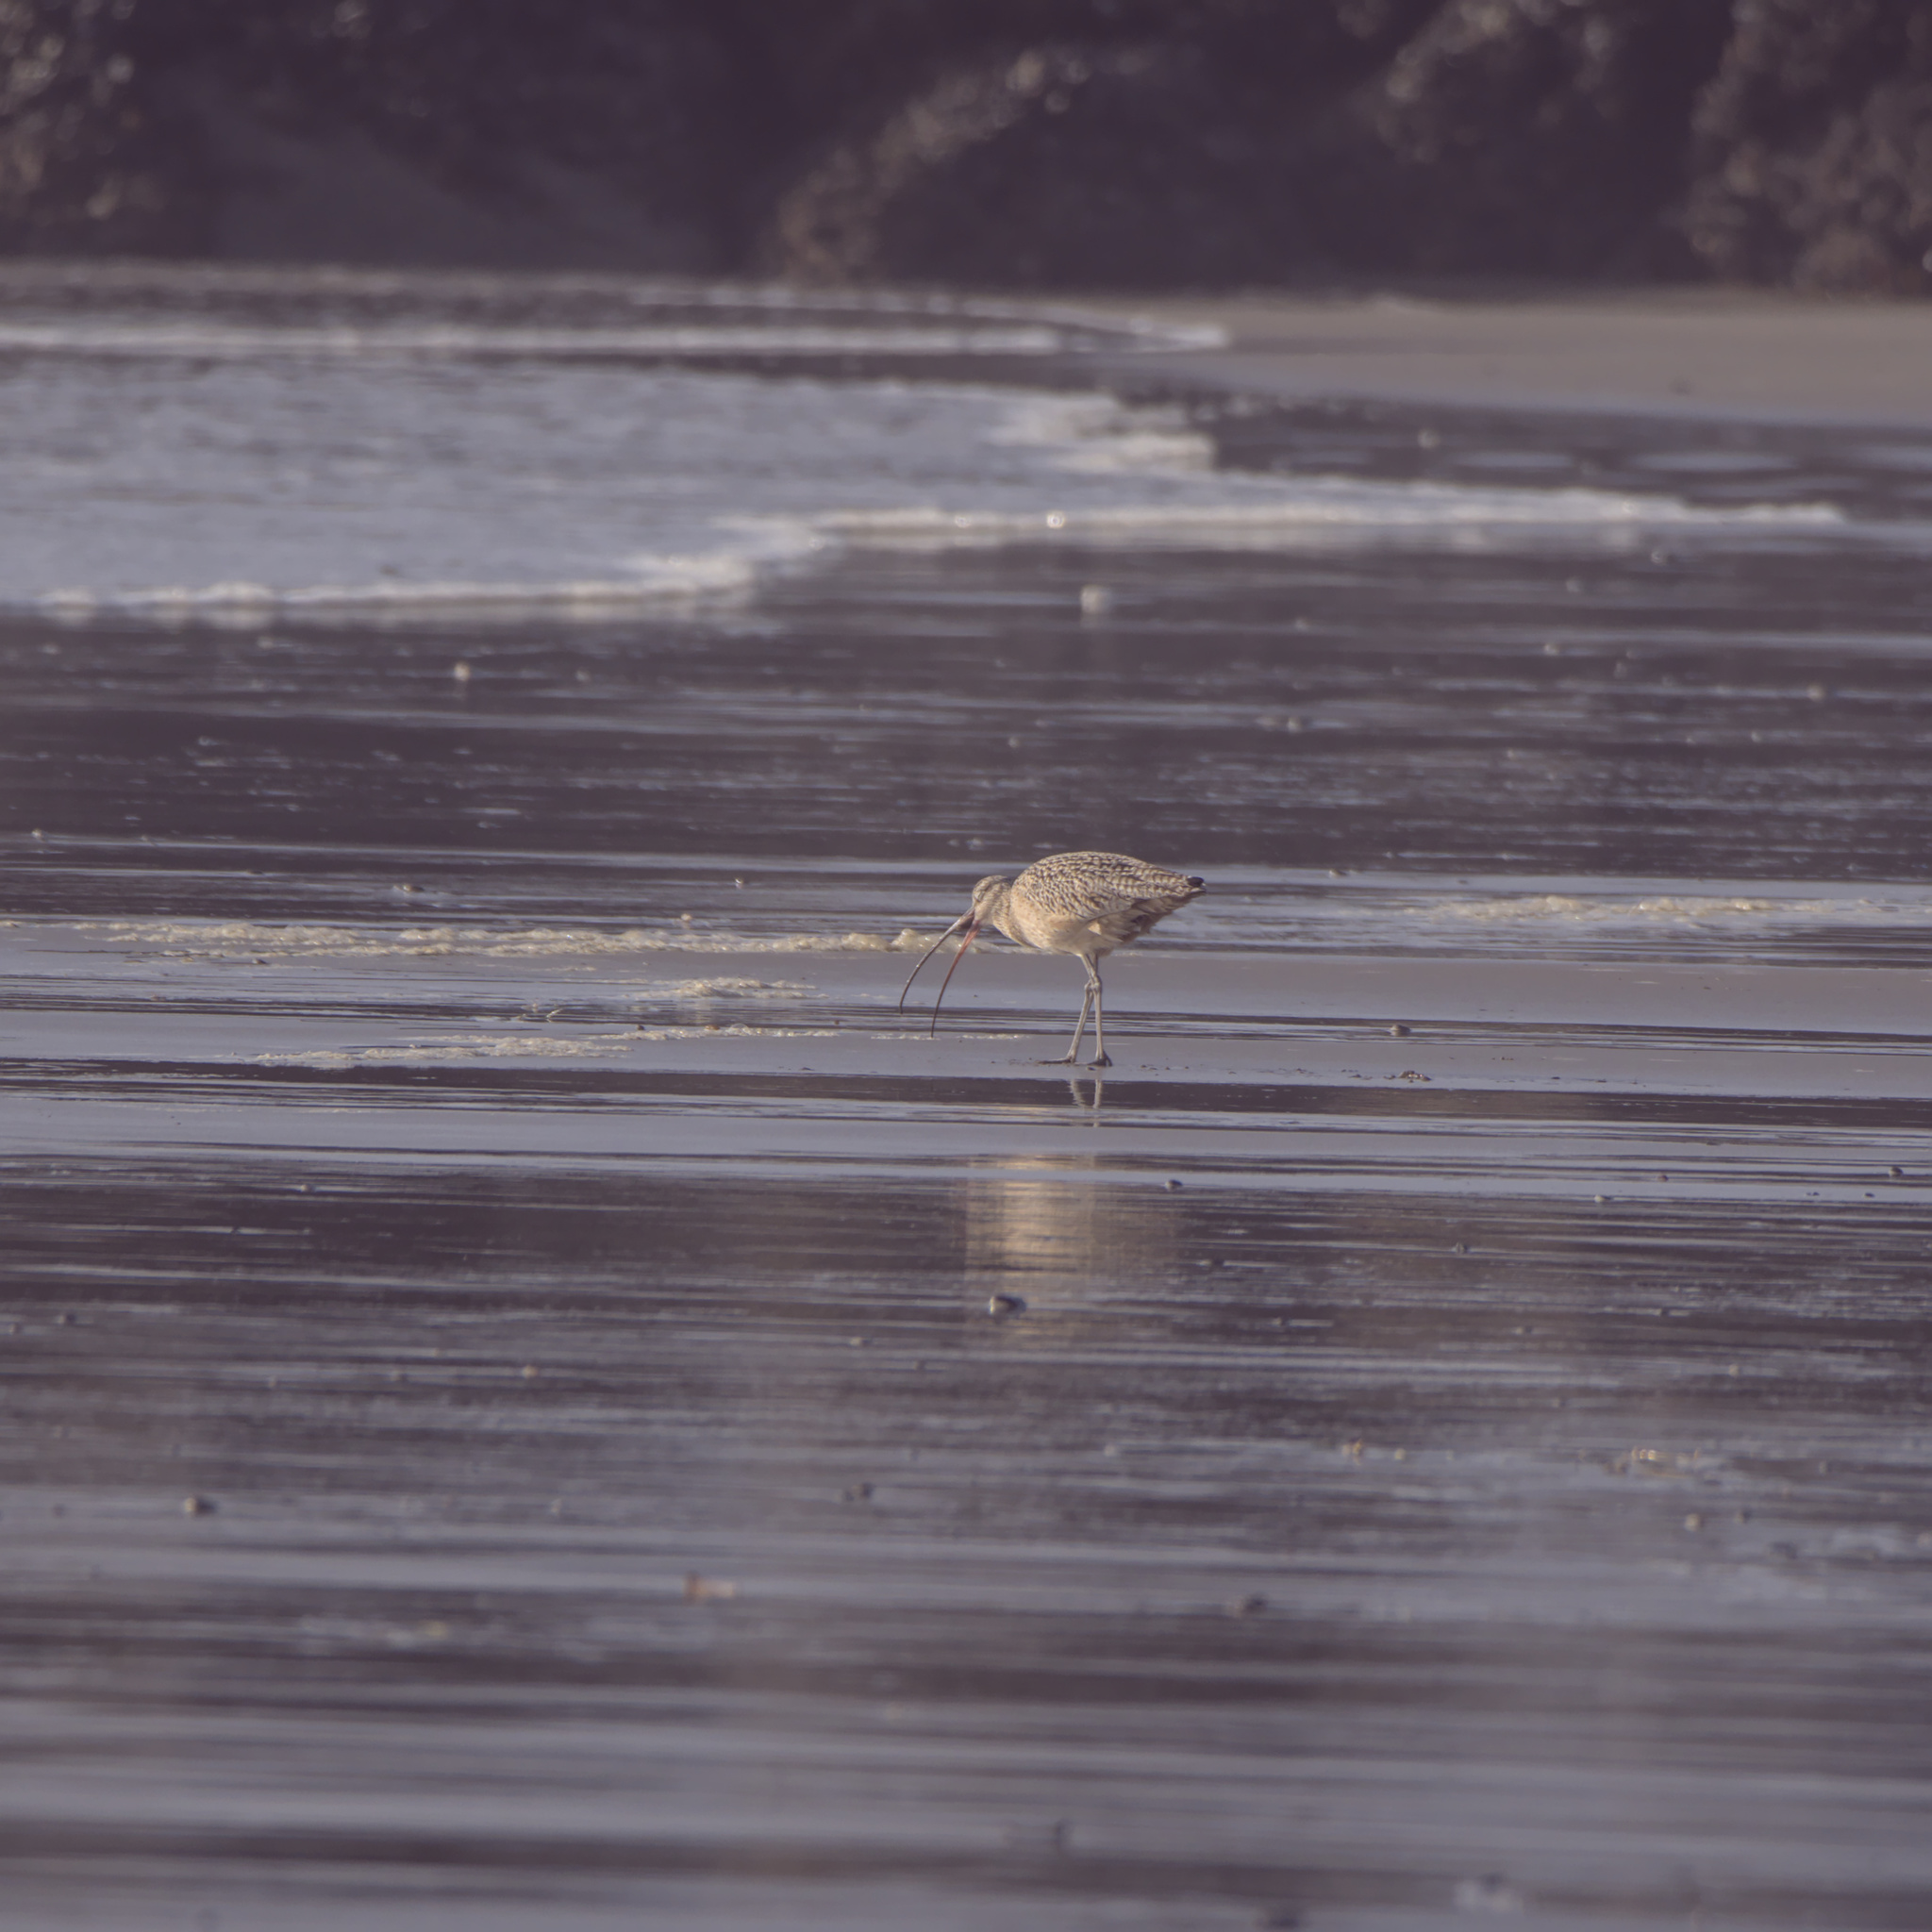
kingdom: Animalia
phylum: Chordata
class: Aves
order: Charadriiformes
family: Scolopacidae
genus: Numenius
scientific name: Numenius americanus
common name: Long-billed curlew
